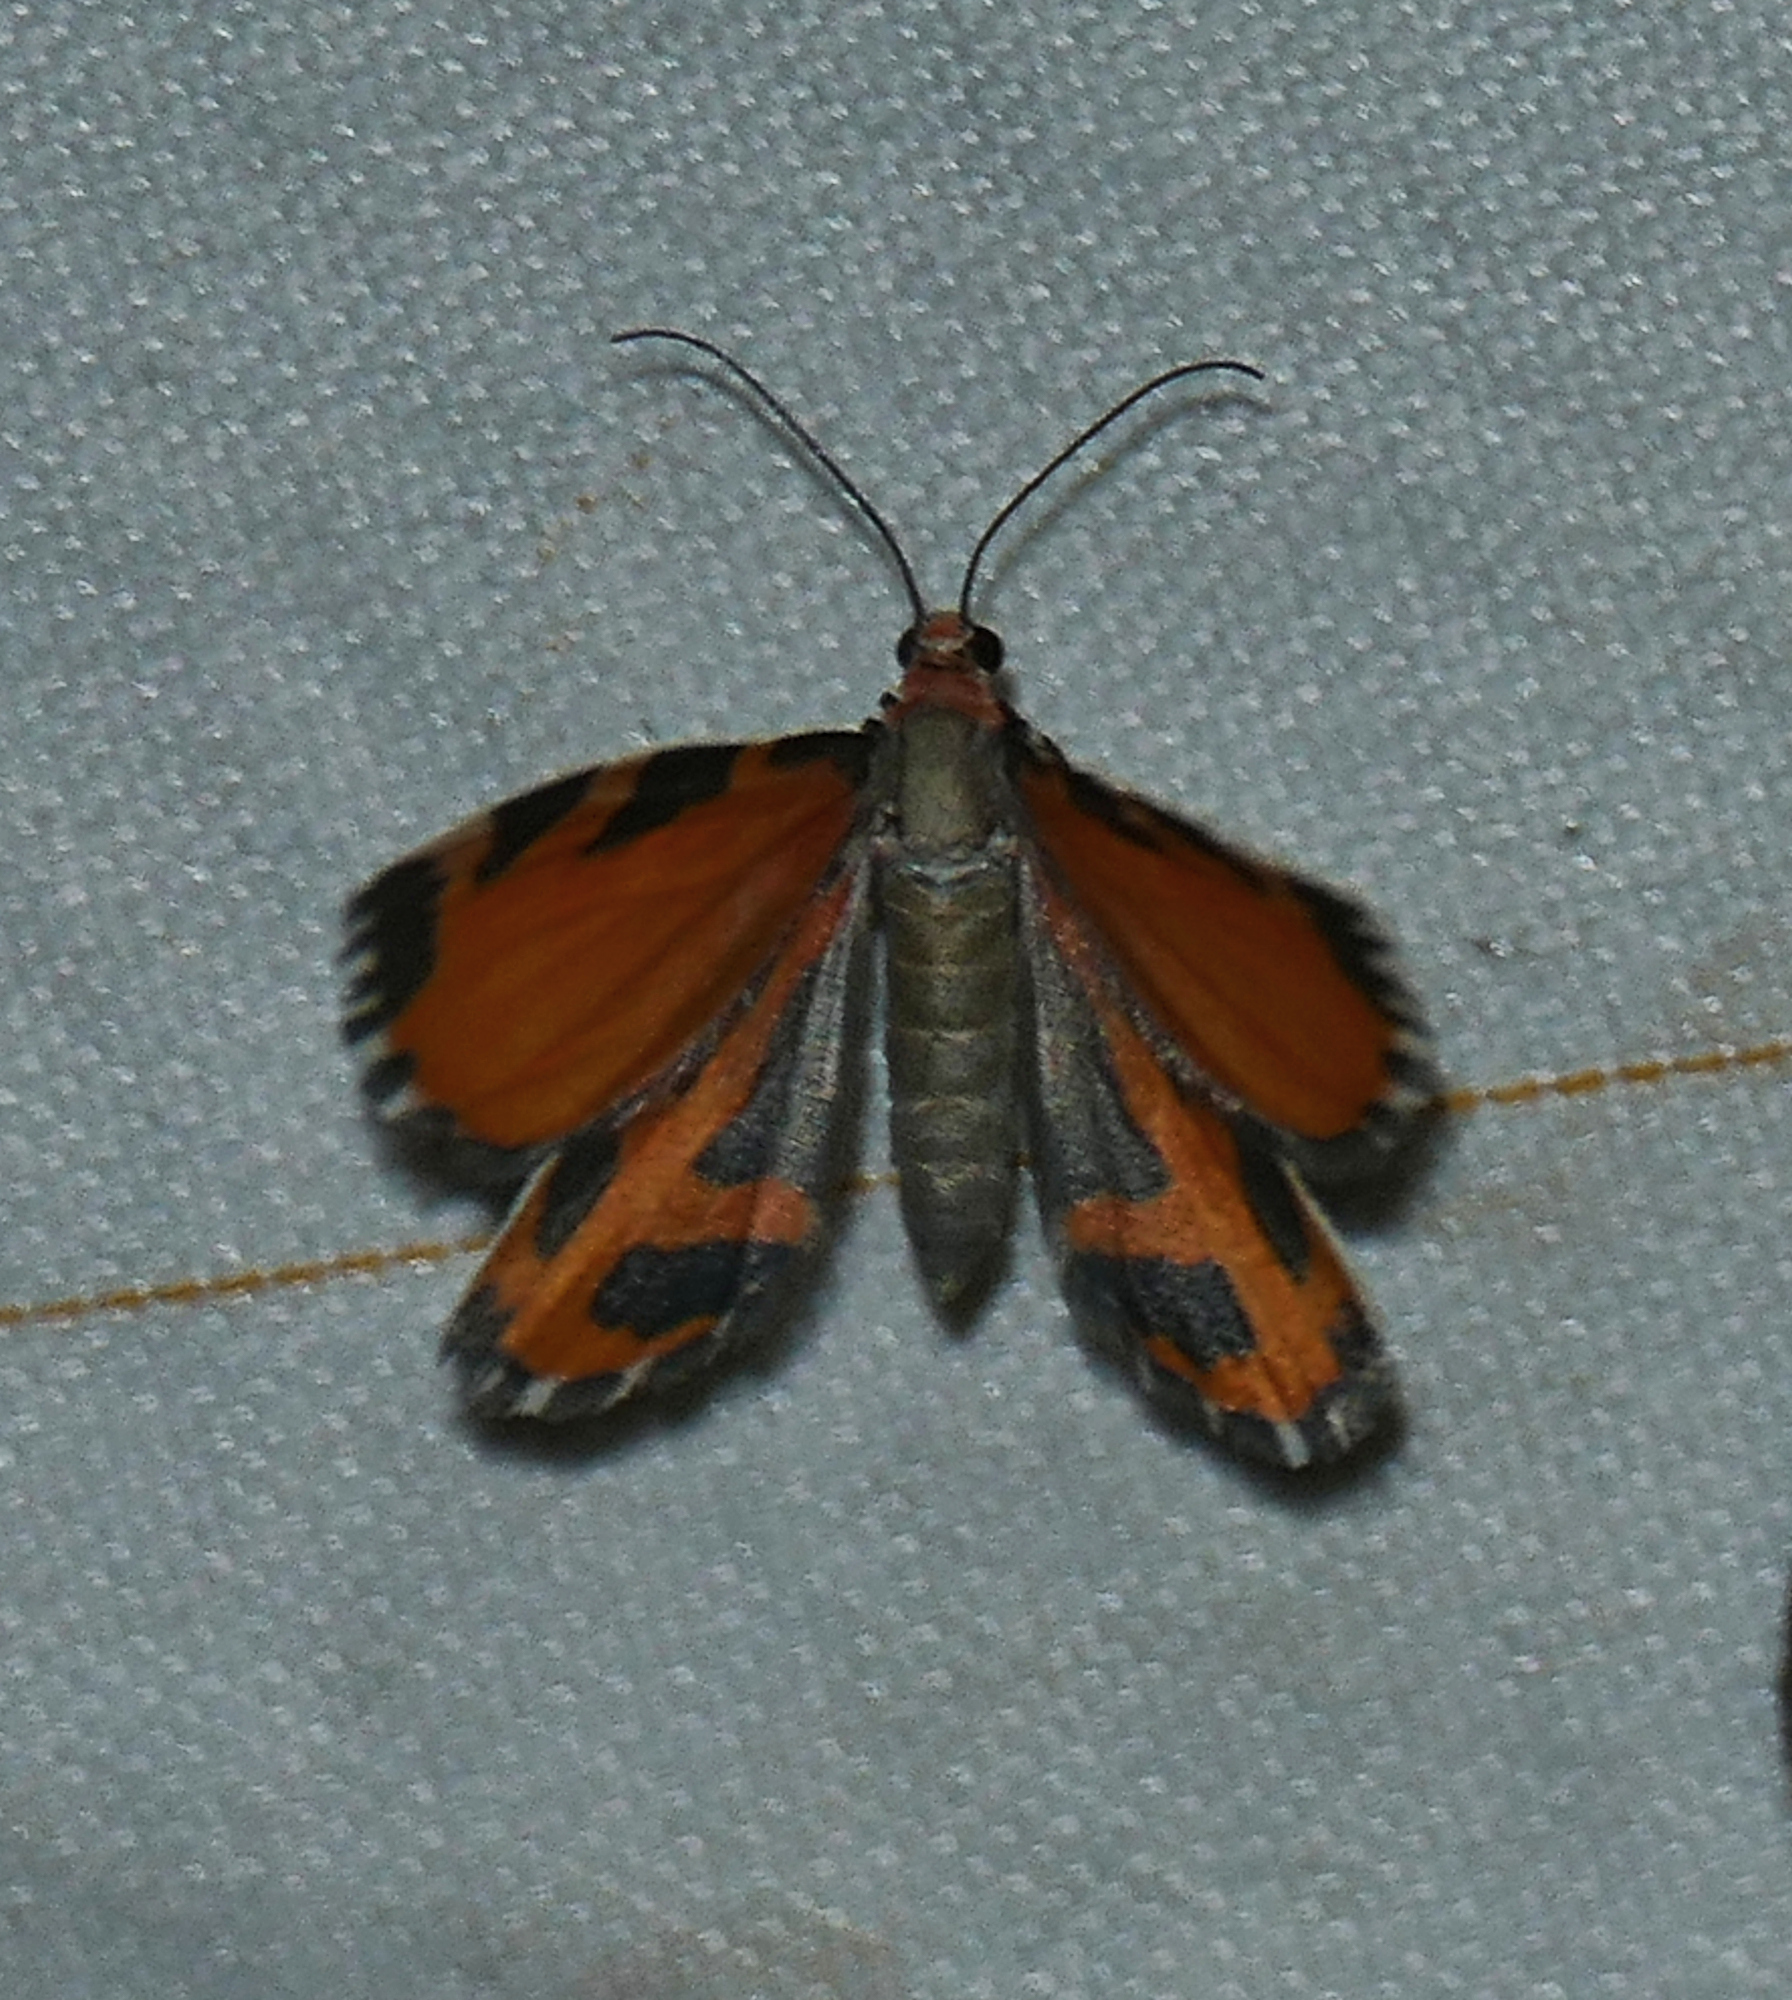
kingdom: Animalia
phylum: Arthropoda
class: Insecta
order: Lepidoptera
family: Geometridae
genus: Stamnodes
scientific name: Stamnodes deceptiva
